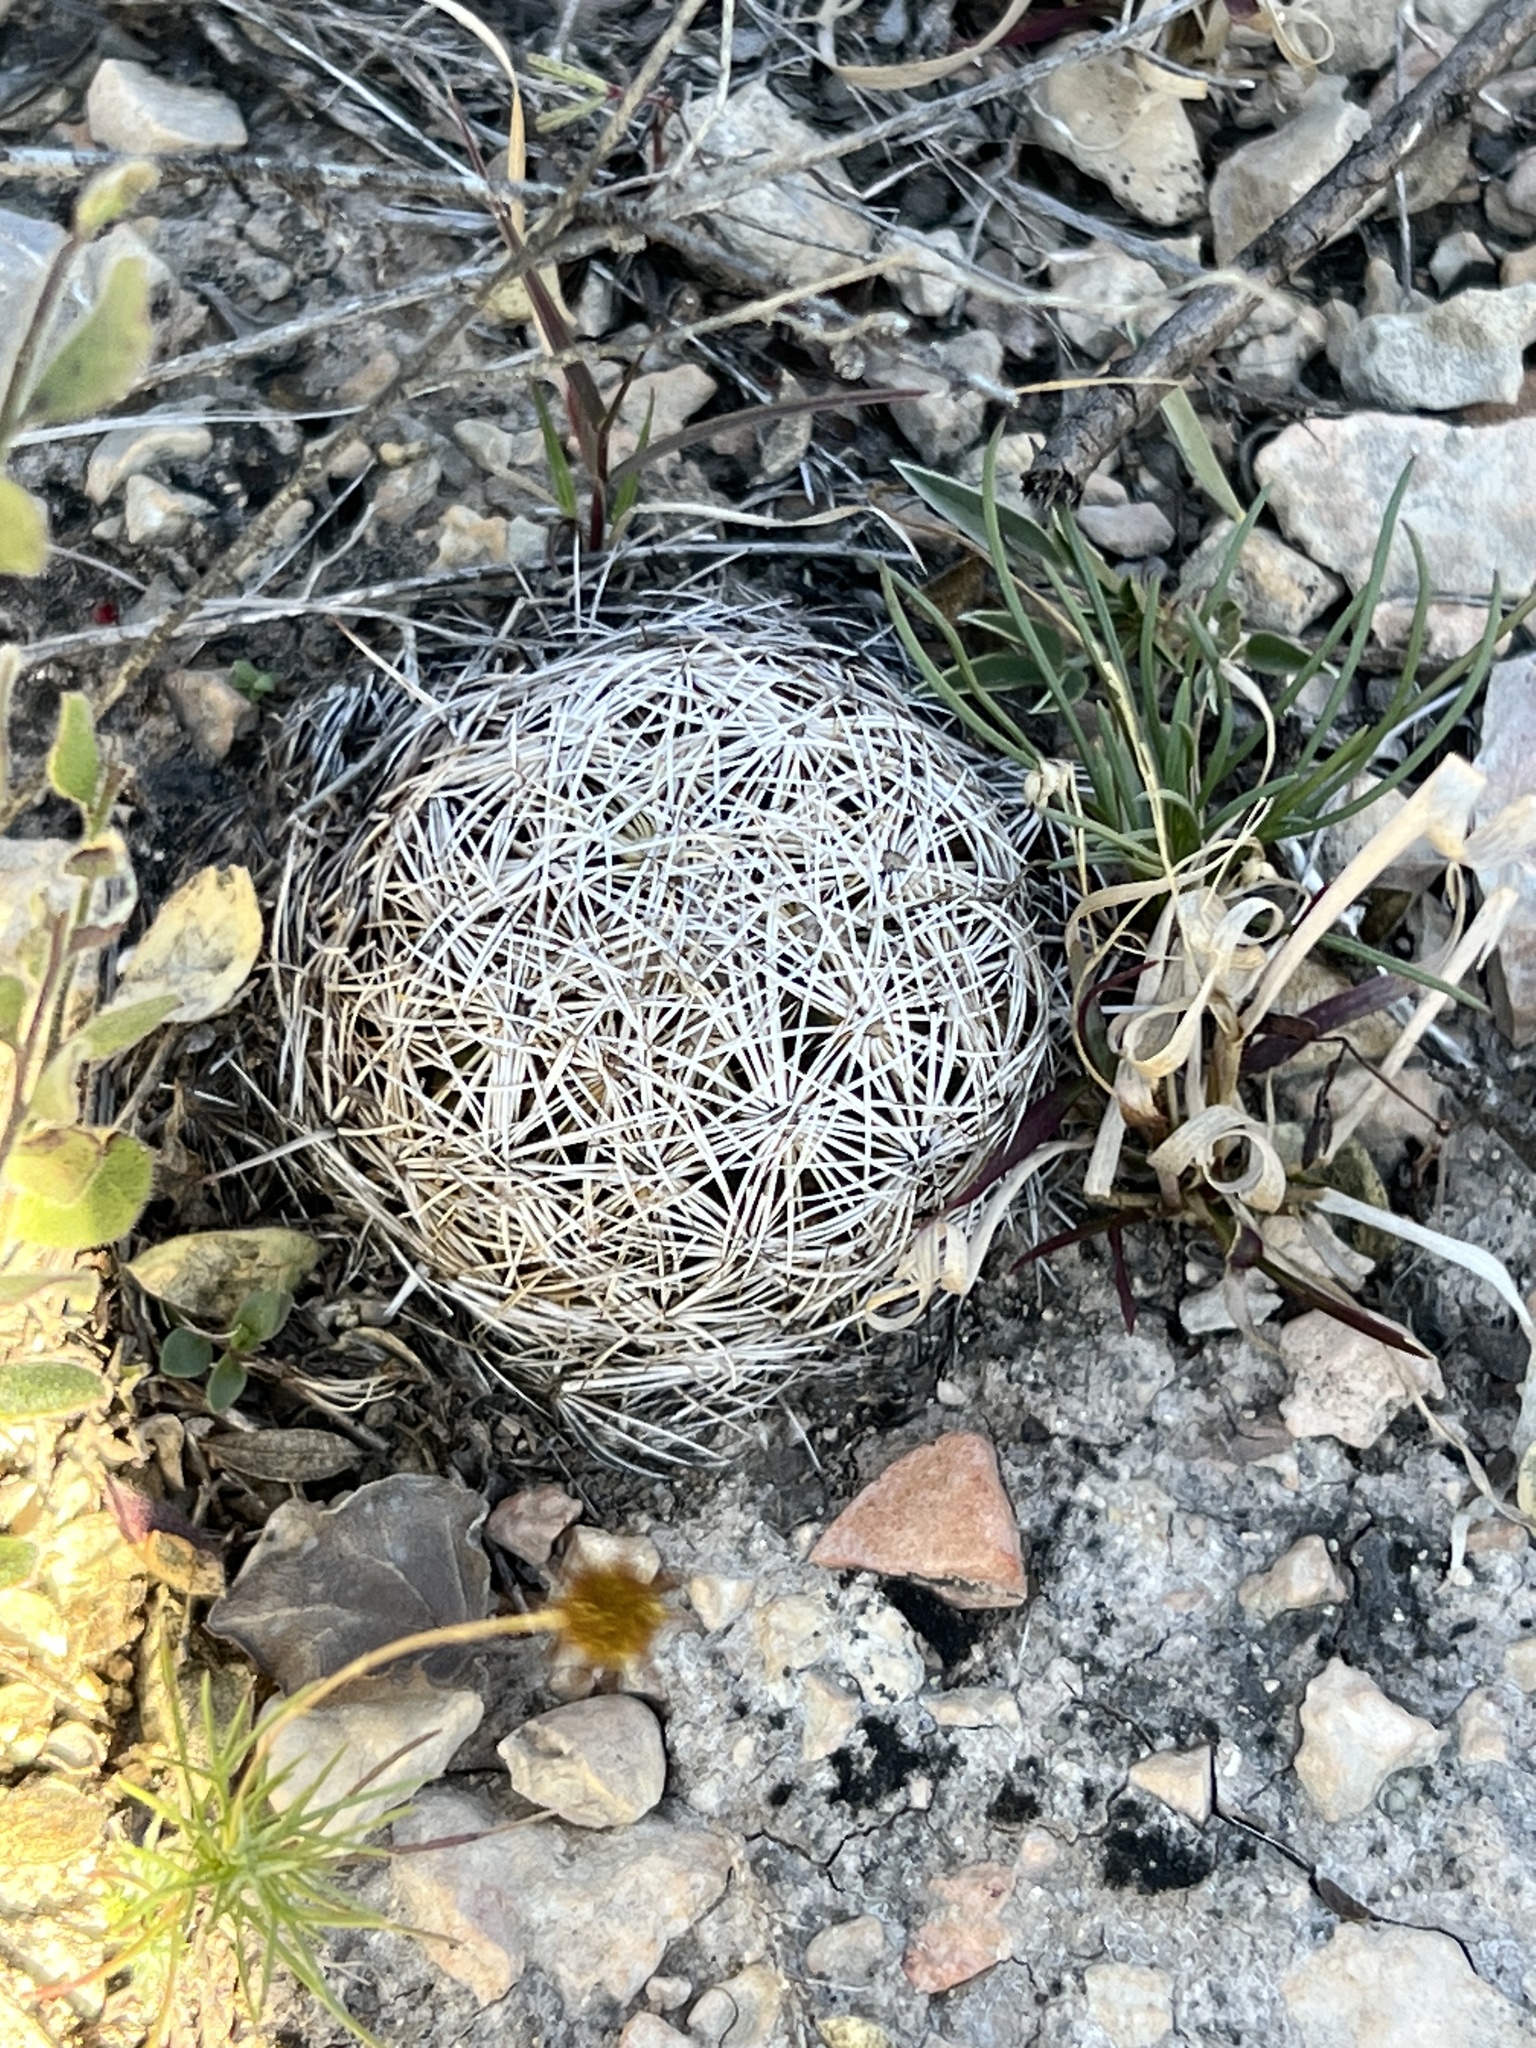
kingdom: Plantae
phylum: Tracheophyta
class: Magnoliopsida
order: Caryophyllales
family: Cactaceae
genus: Coryphantha
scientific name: Coryphantha echinus
